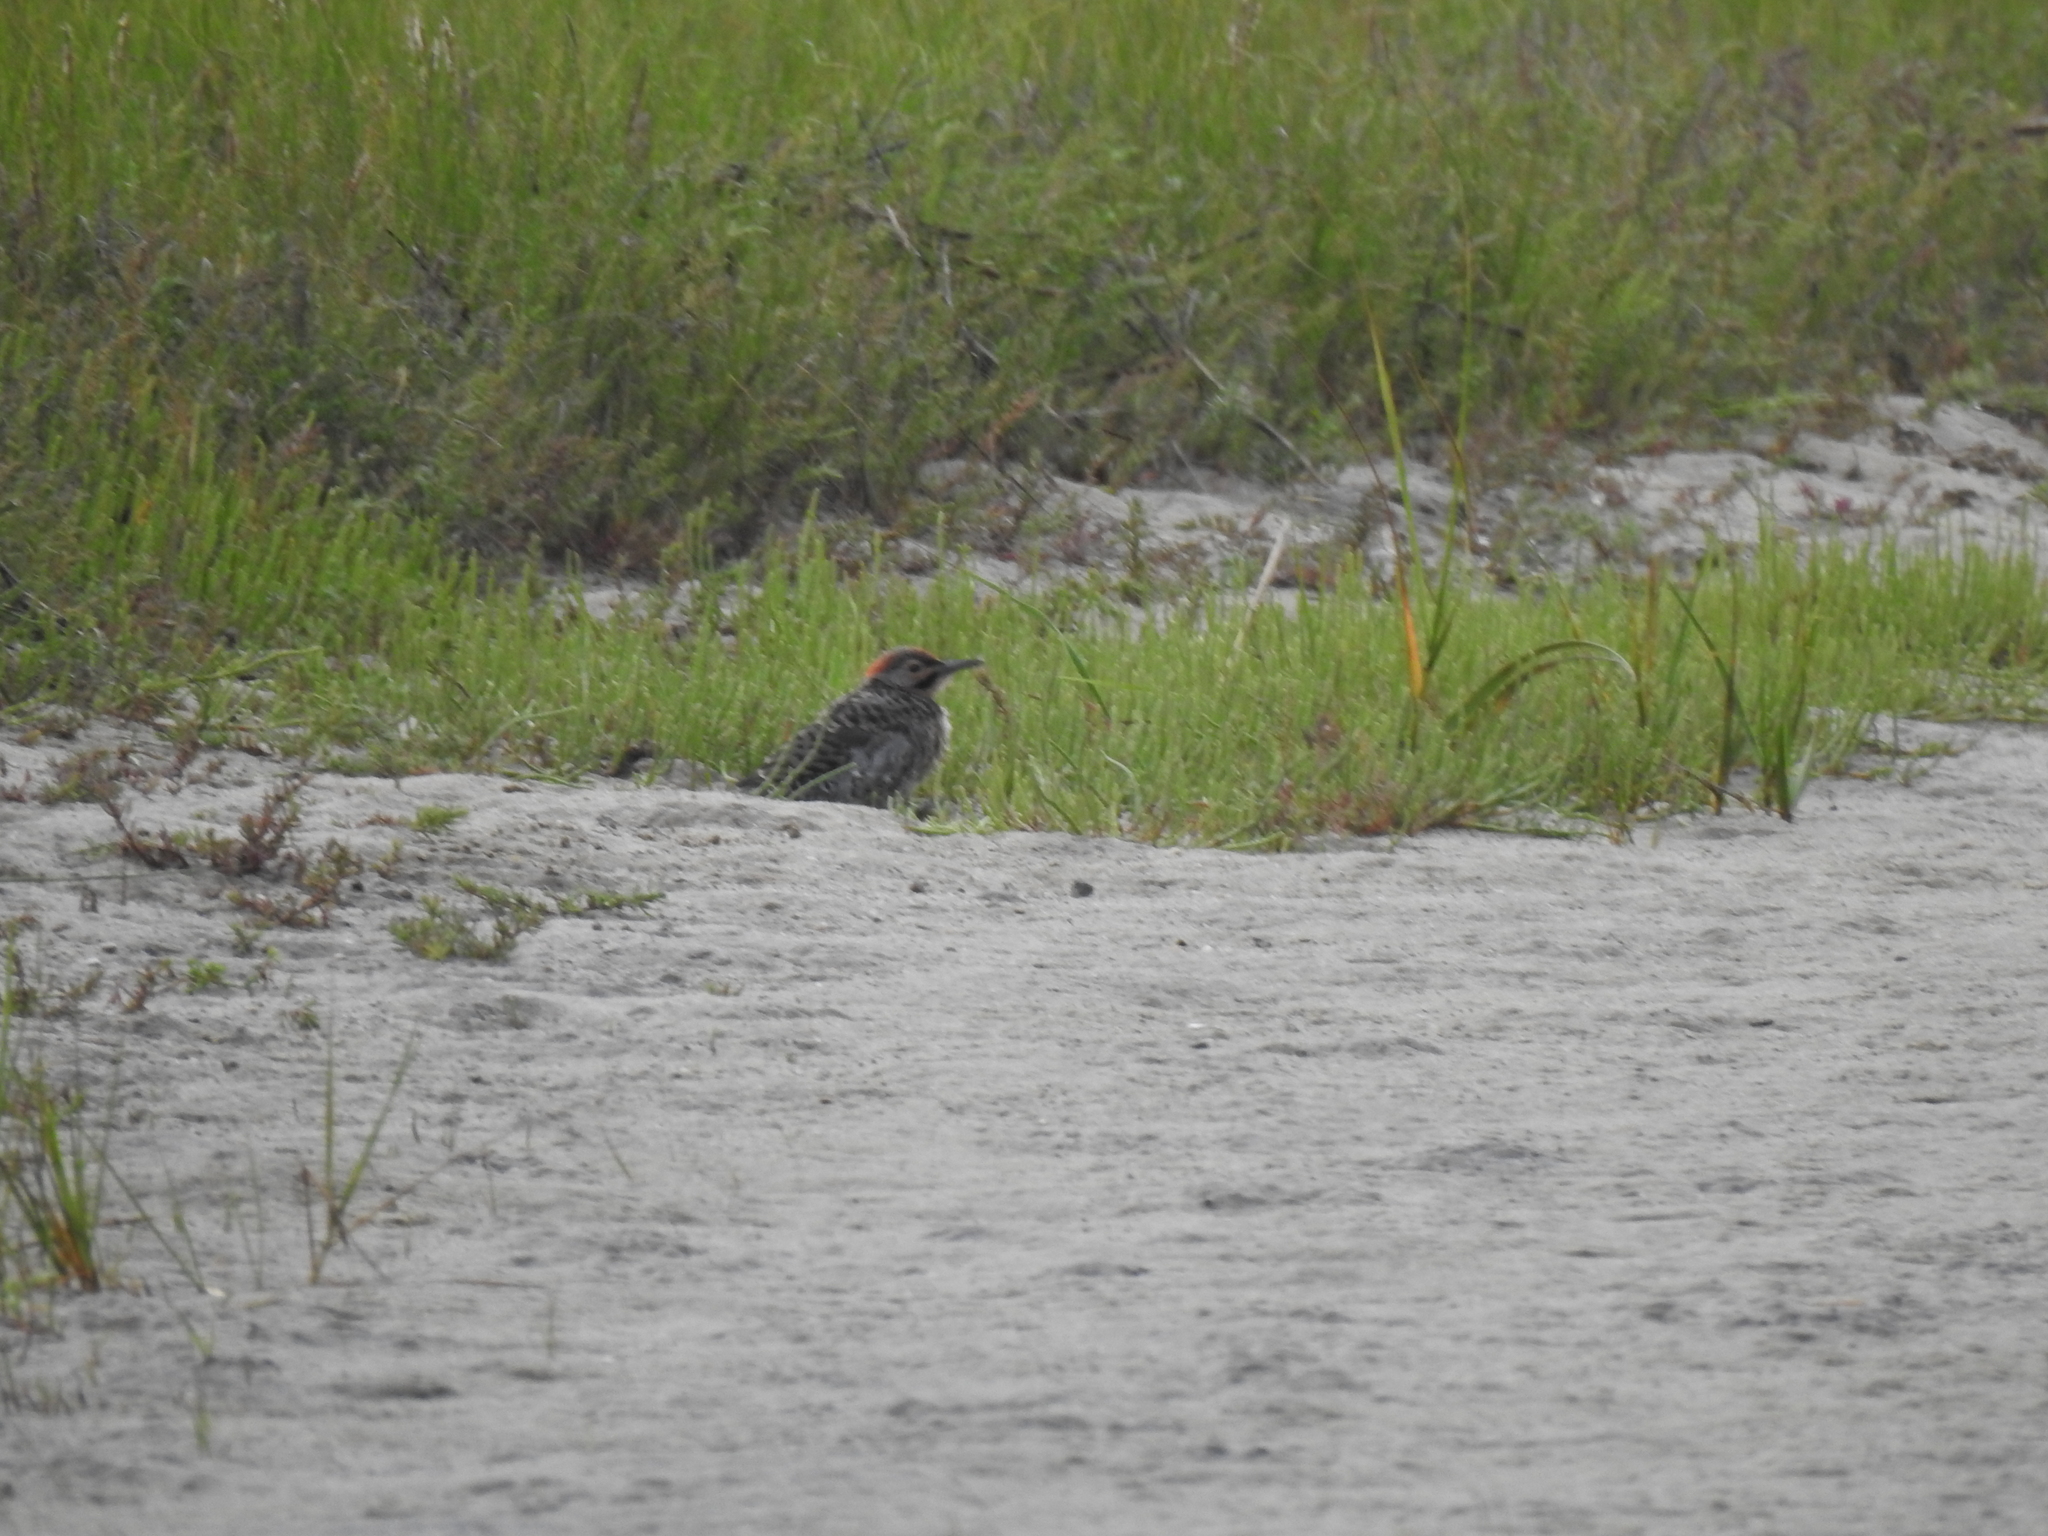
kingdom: Animalia
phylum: Chordata
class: Aves
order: Piciformes
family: Picidae
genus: Colaptes
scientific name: Colaptes auratus
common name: Northern flicker
